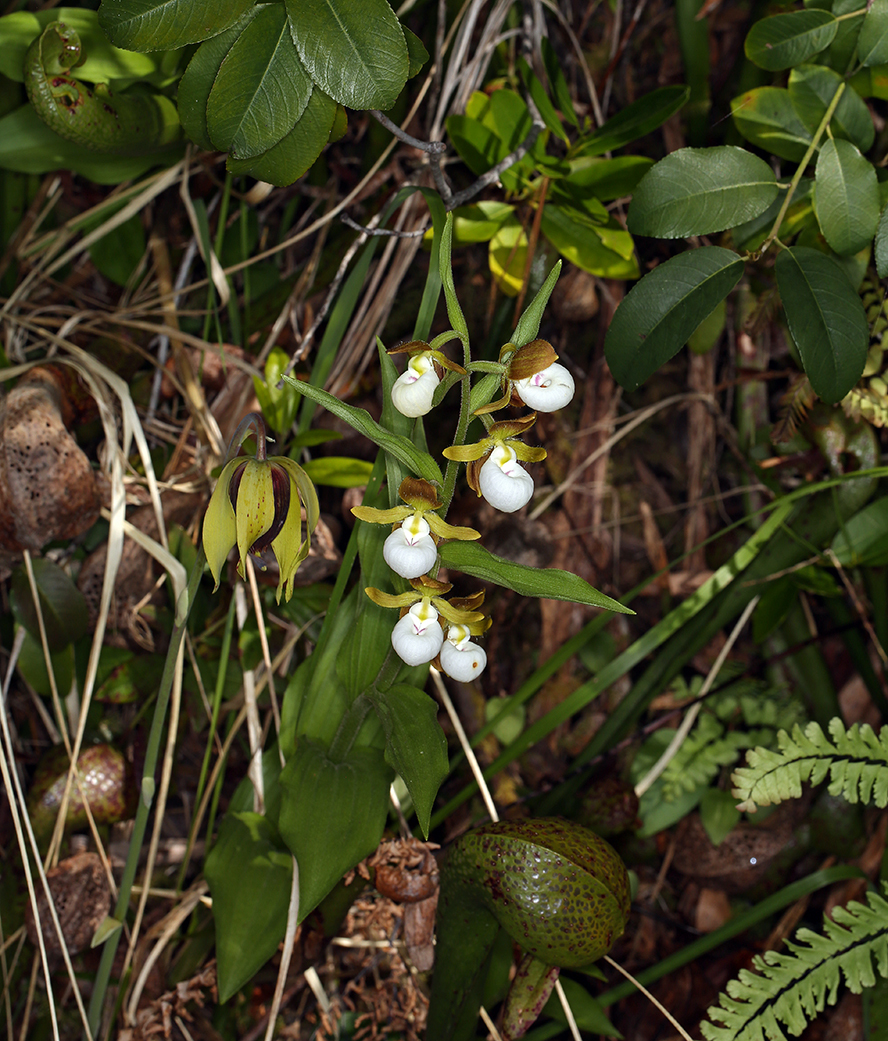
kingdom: Plantae
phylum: Tracheophyta
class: Liliopsida
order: Asparagales
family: Orchidaceae
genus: Cypripedium
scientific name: Cypripedium californicum
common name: California lady's slipper
